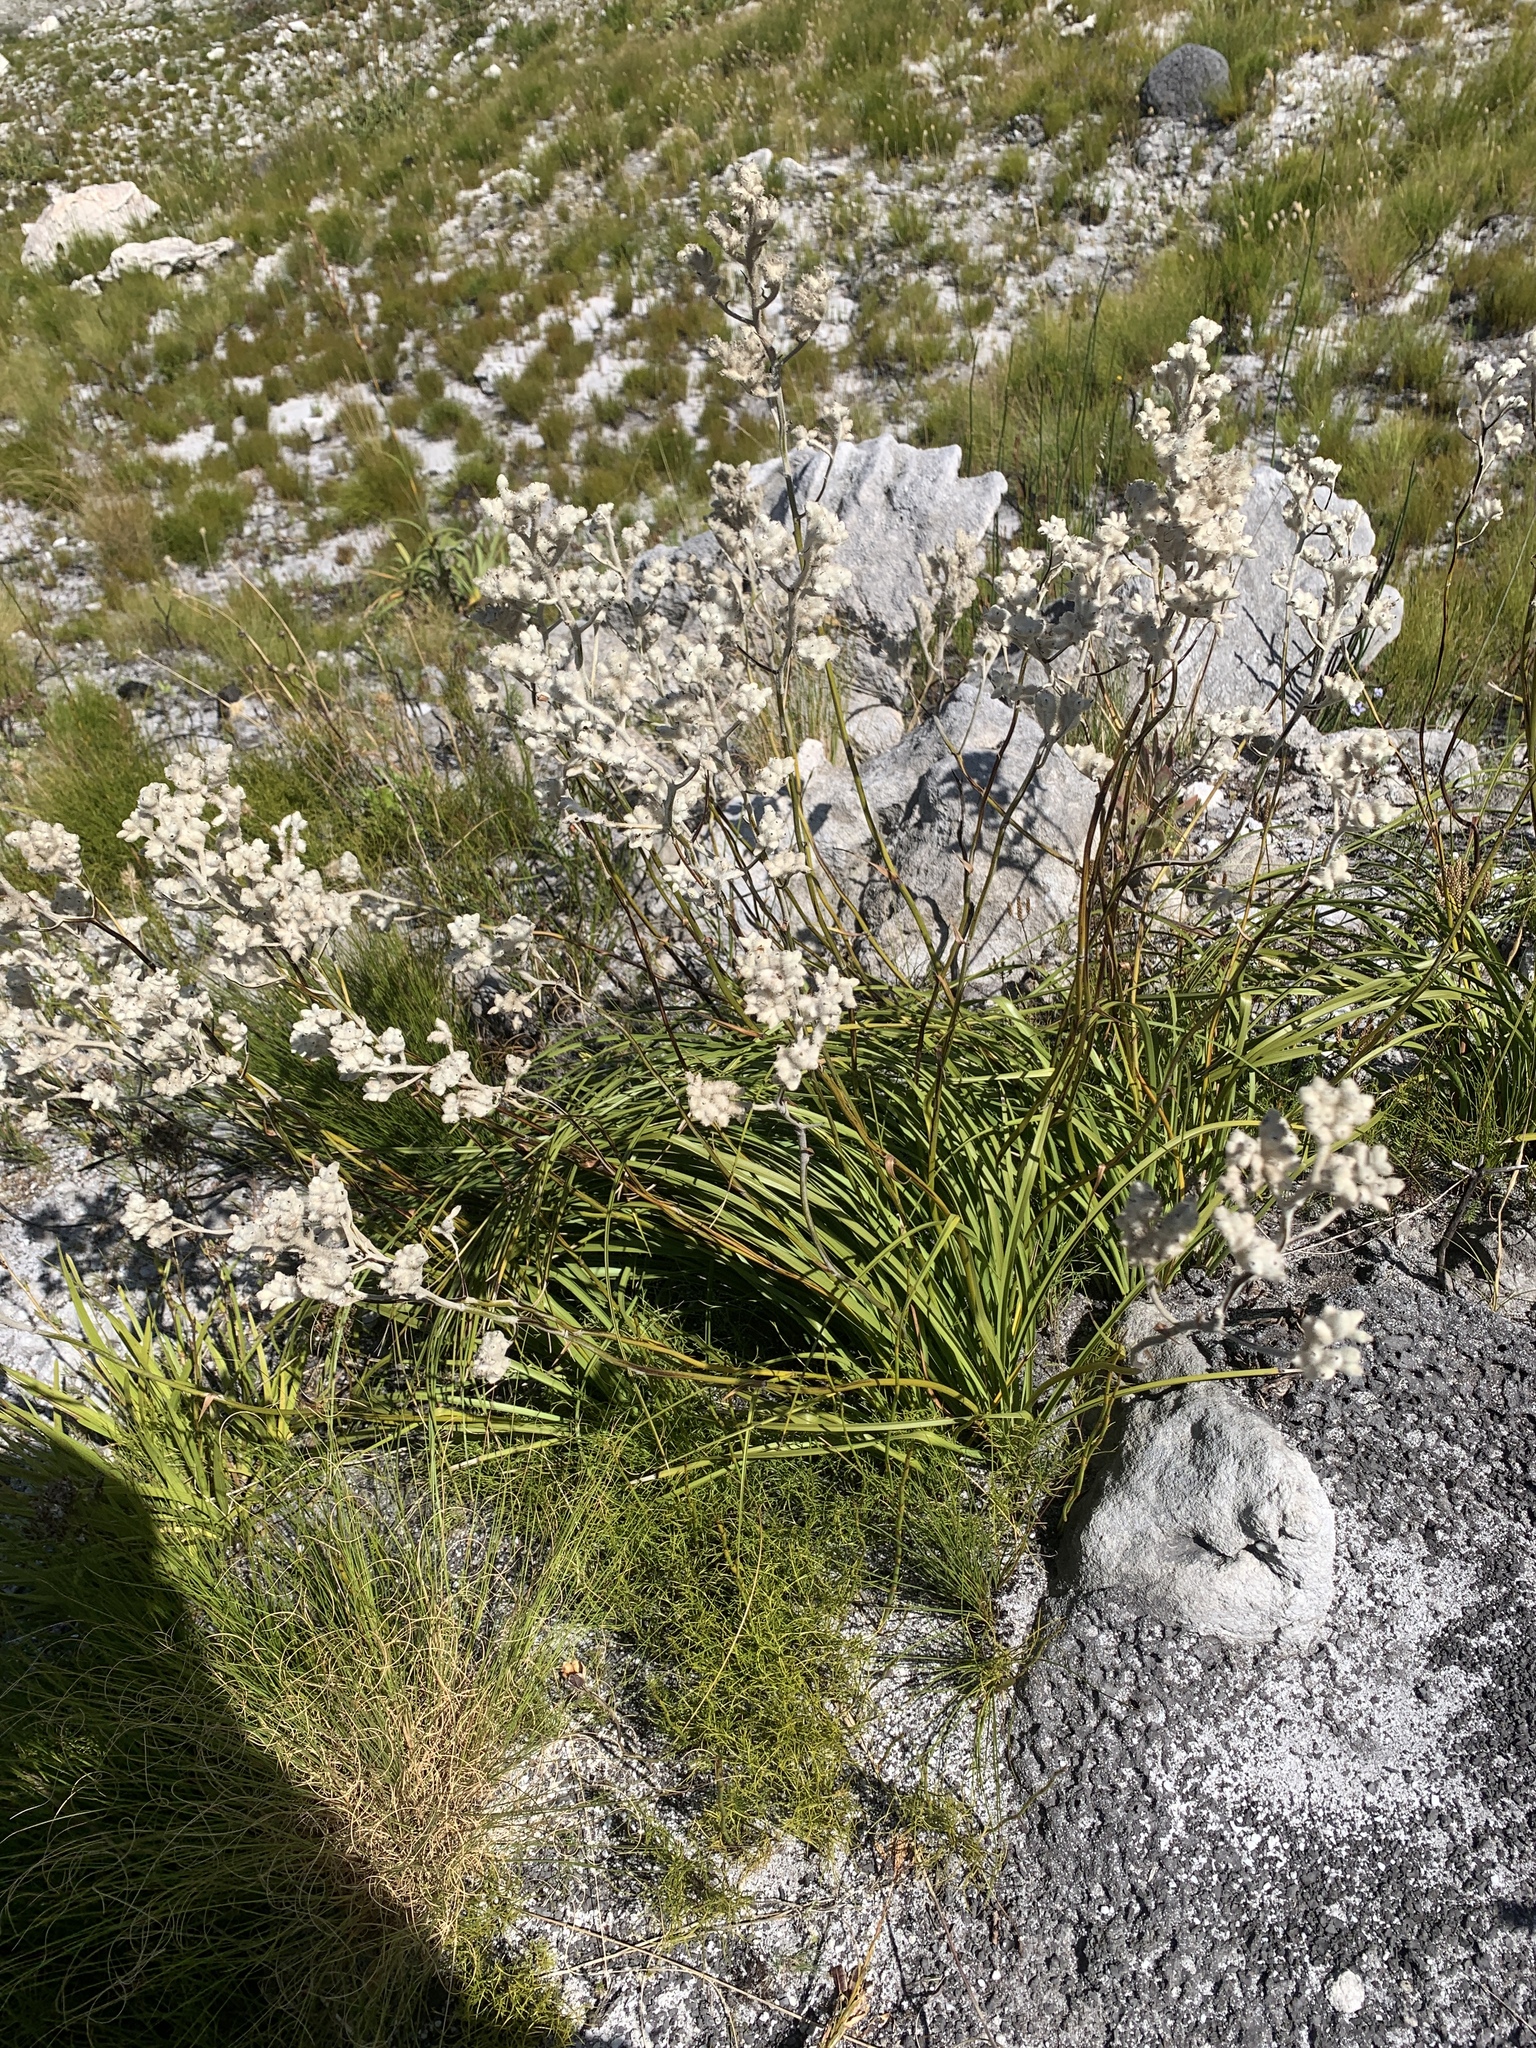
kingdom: Plantae
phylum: Tracheophyta
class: Liliopsida
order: Asparagales
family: Lanariaceae
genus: Lanaria
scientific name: Lanaria lanata
